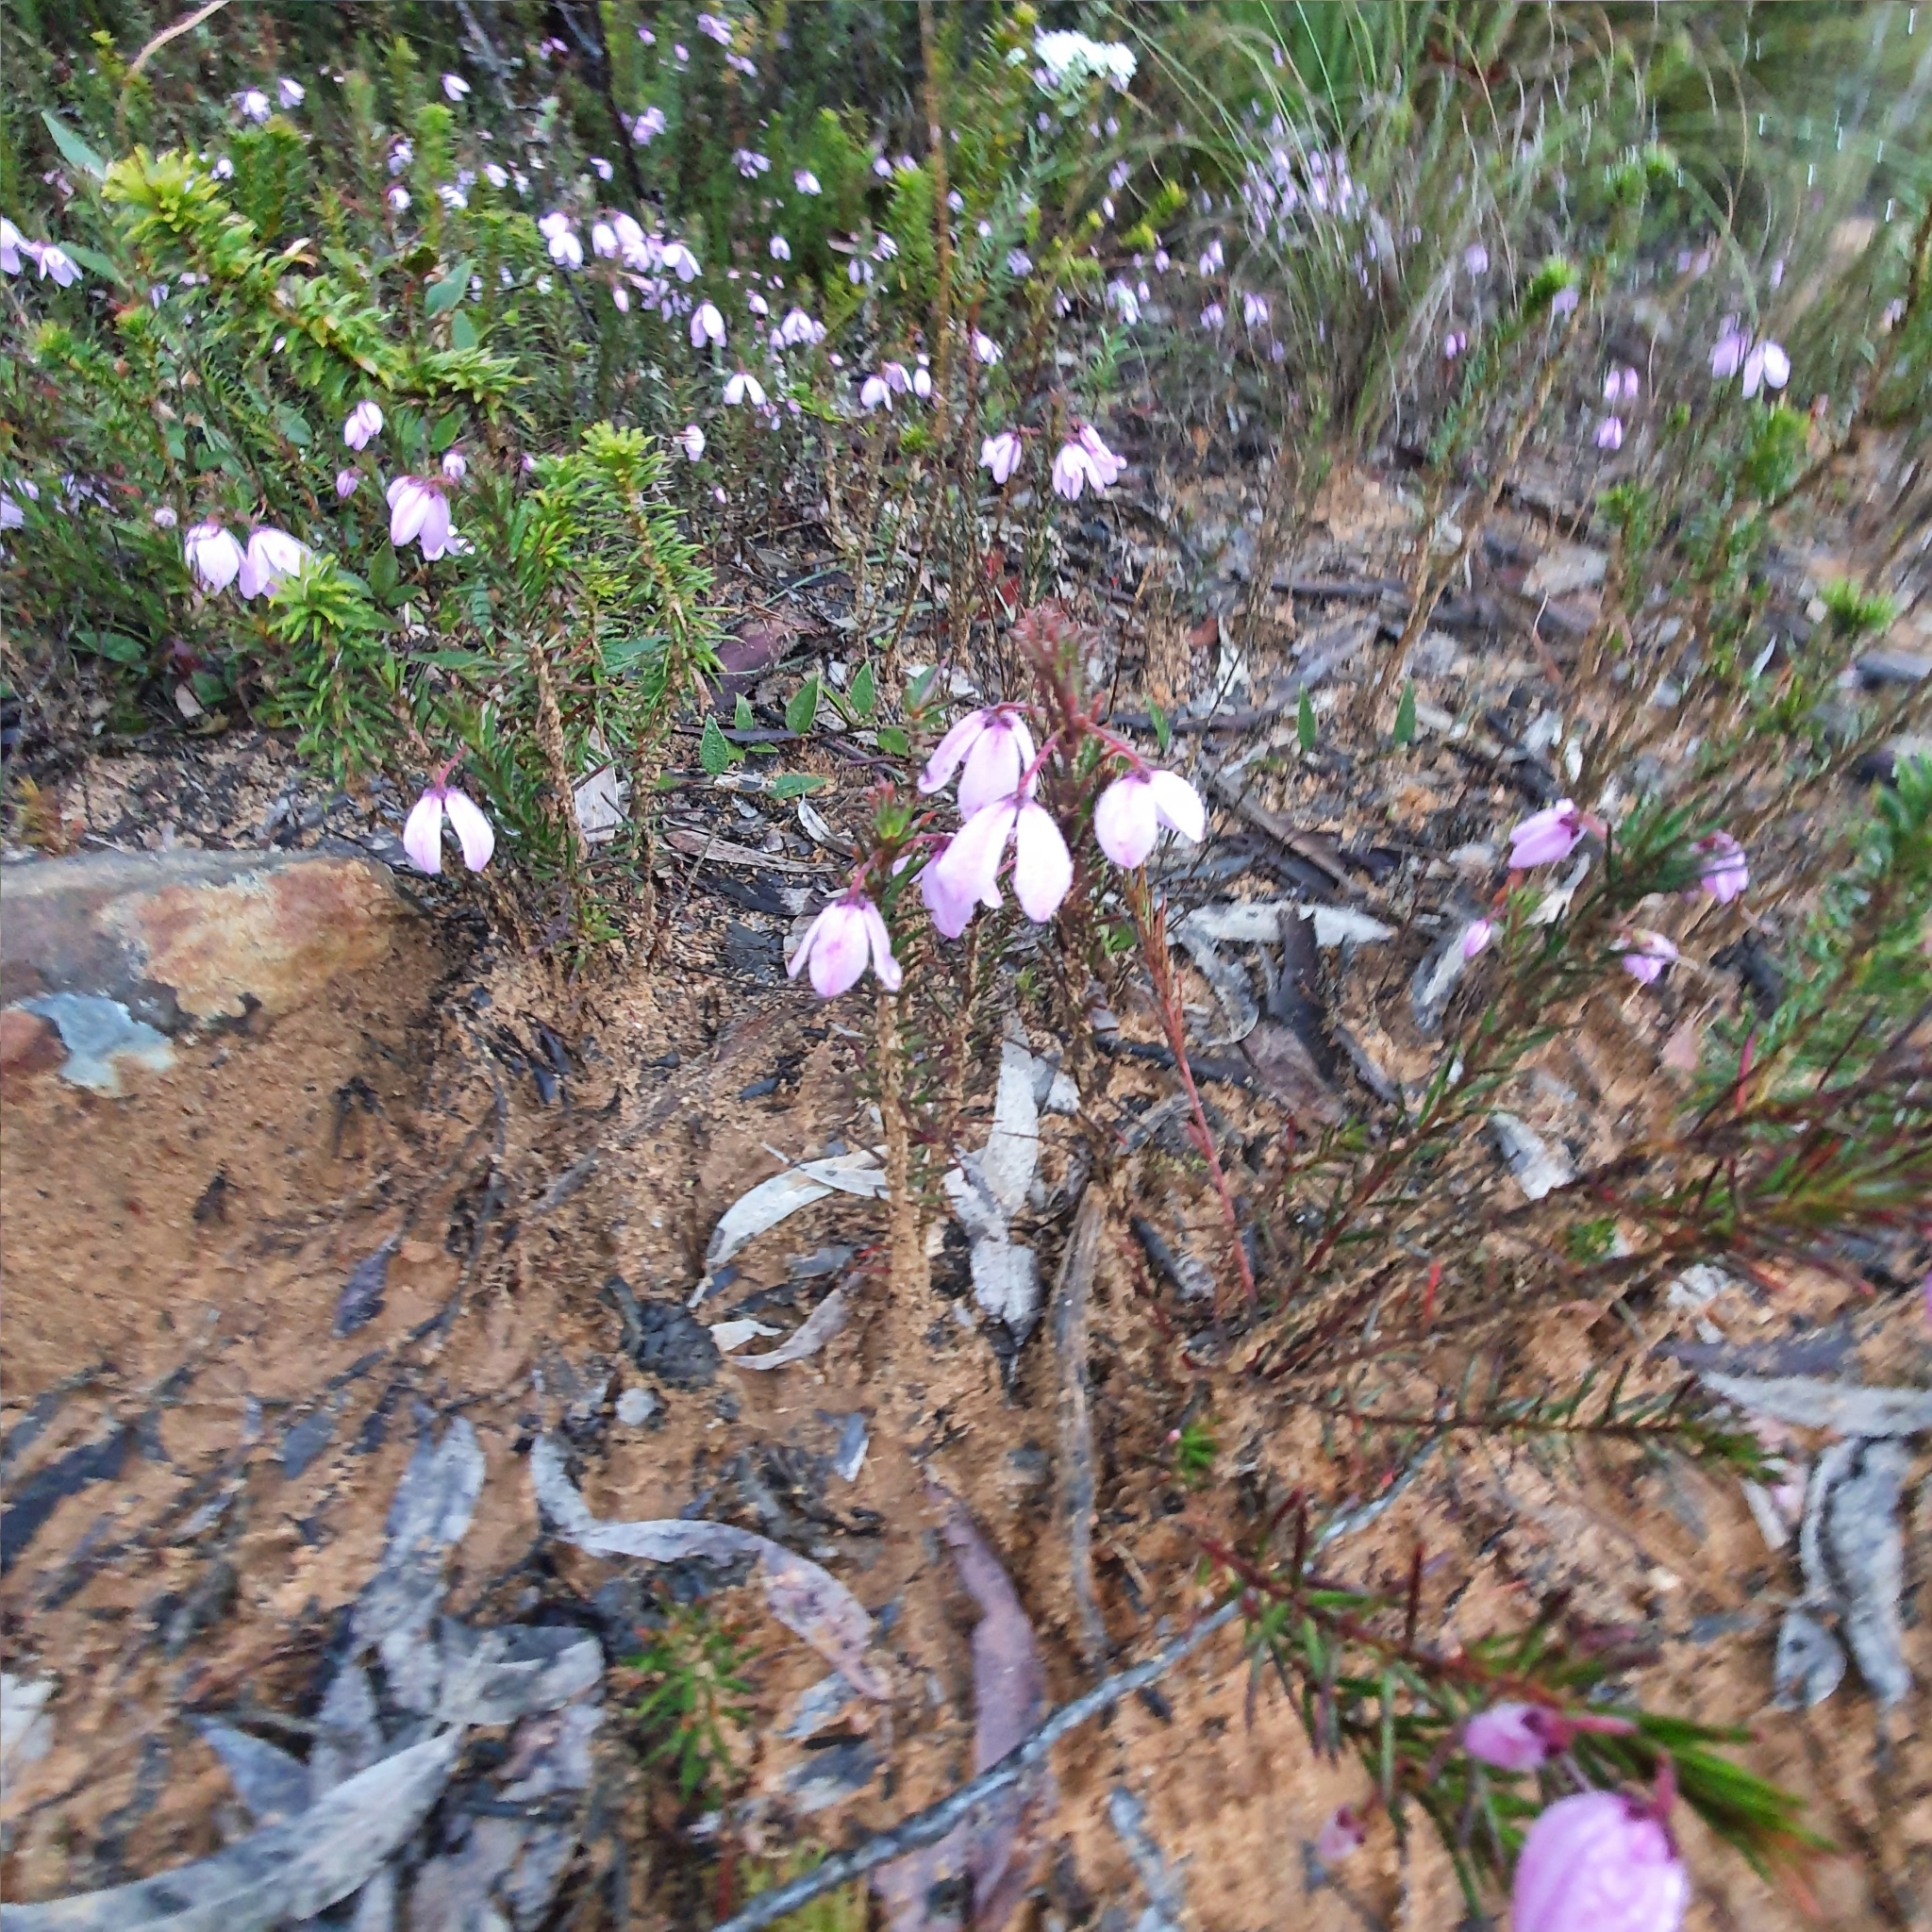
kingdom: Plantae
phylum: Tracheophyta
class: Magnoliopsida
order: Oxalidales
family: Elaeocarpaceae
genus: Tetratheca
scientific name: Tetratheca ericifolia
